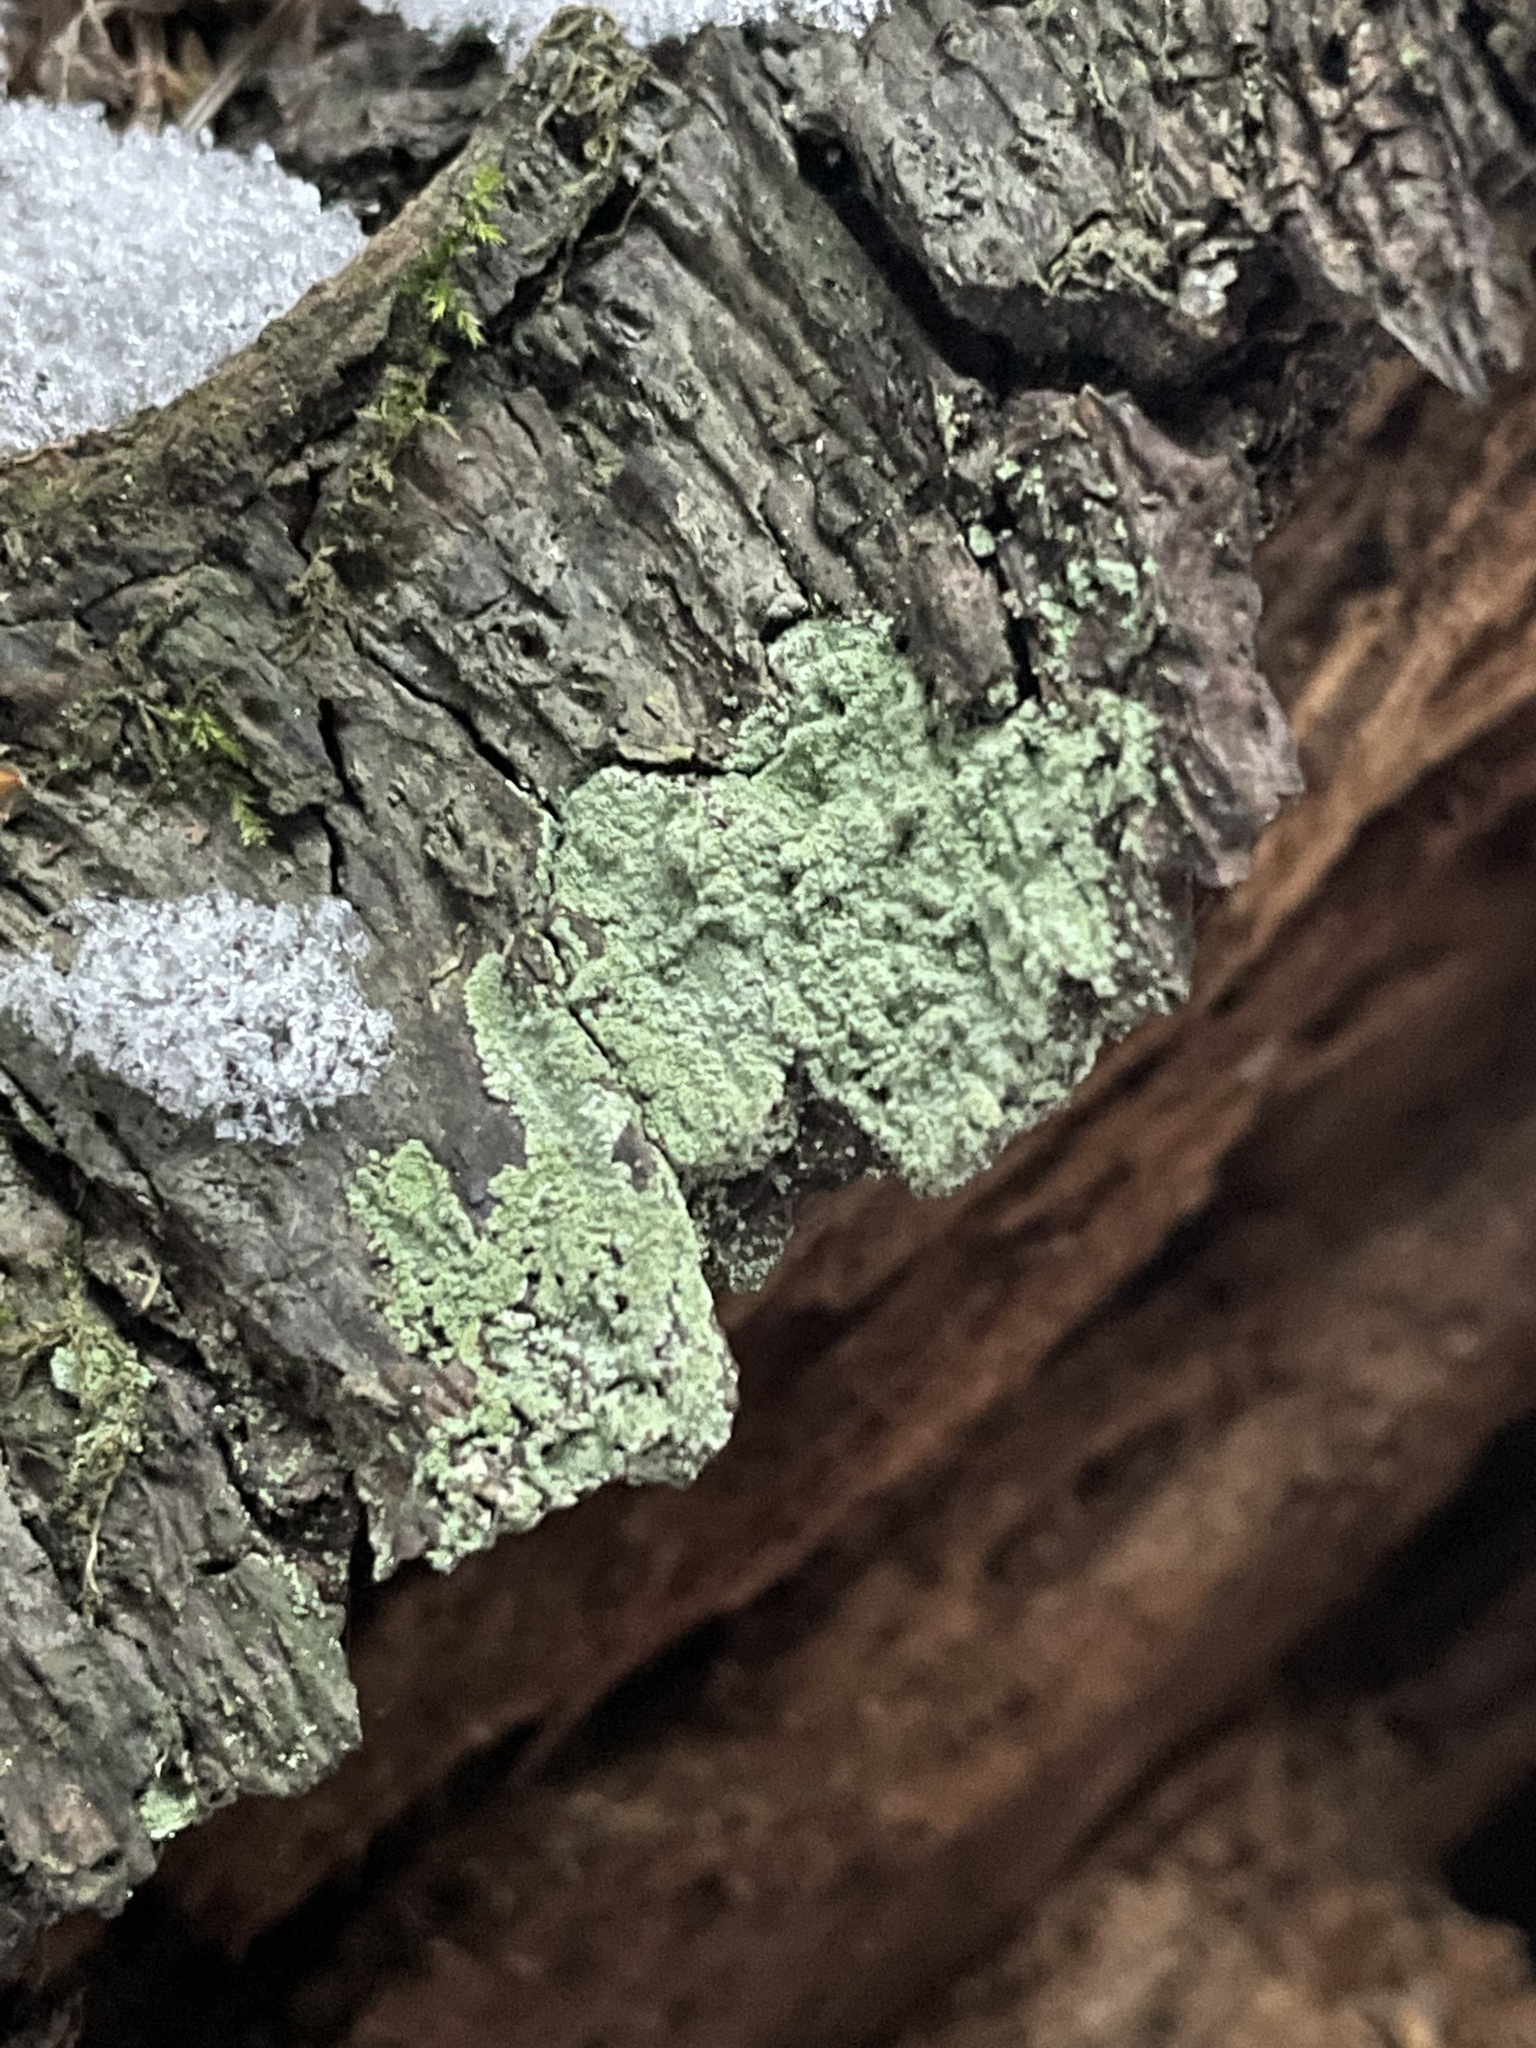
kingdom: Fungi
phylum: Ascomycota
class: Lecanoromycetes
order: Lecanorales
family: Stereocaulaceae
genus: Lepraria
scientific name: Lepraria lobificans
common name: Fluffy dust lichen
